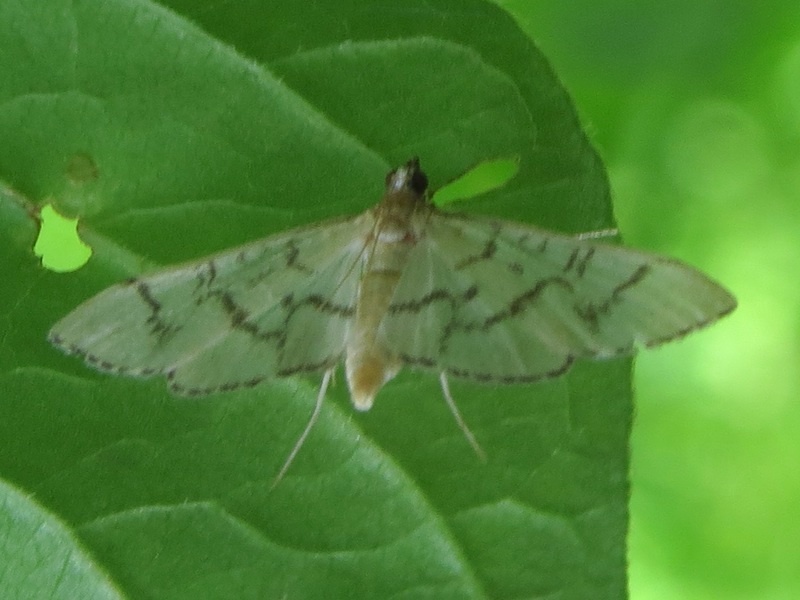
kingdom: Animalia
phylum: Arthropoda
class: Insecta
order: Lepidoptera
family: Crambidae
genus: Lamprosema
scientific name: Lamprosema Blepharomastix ranalis
